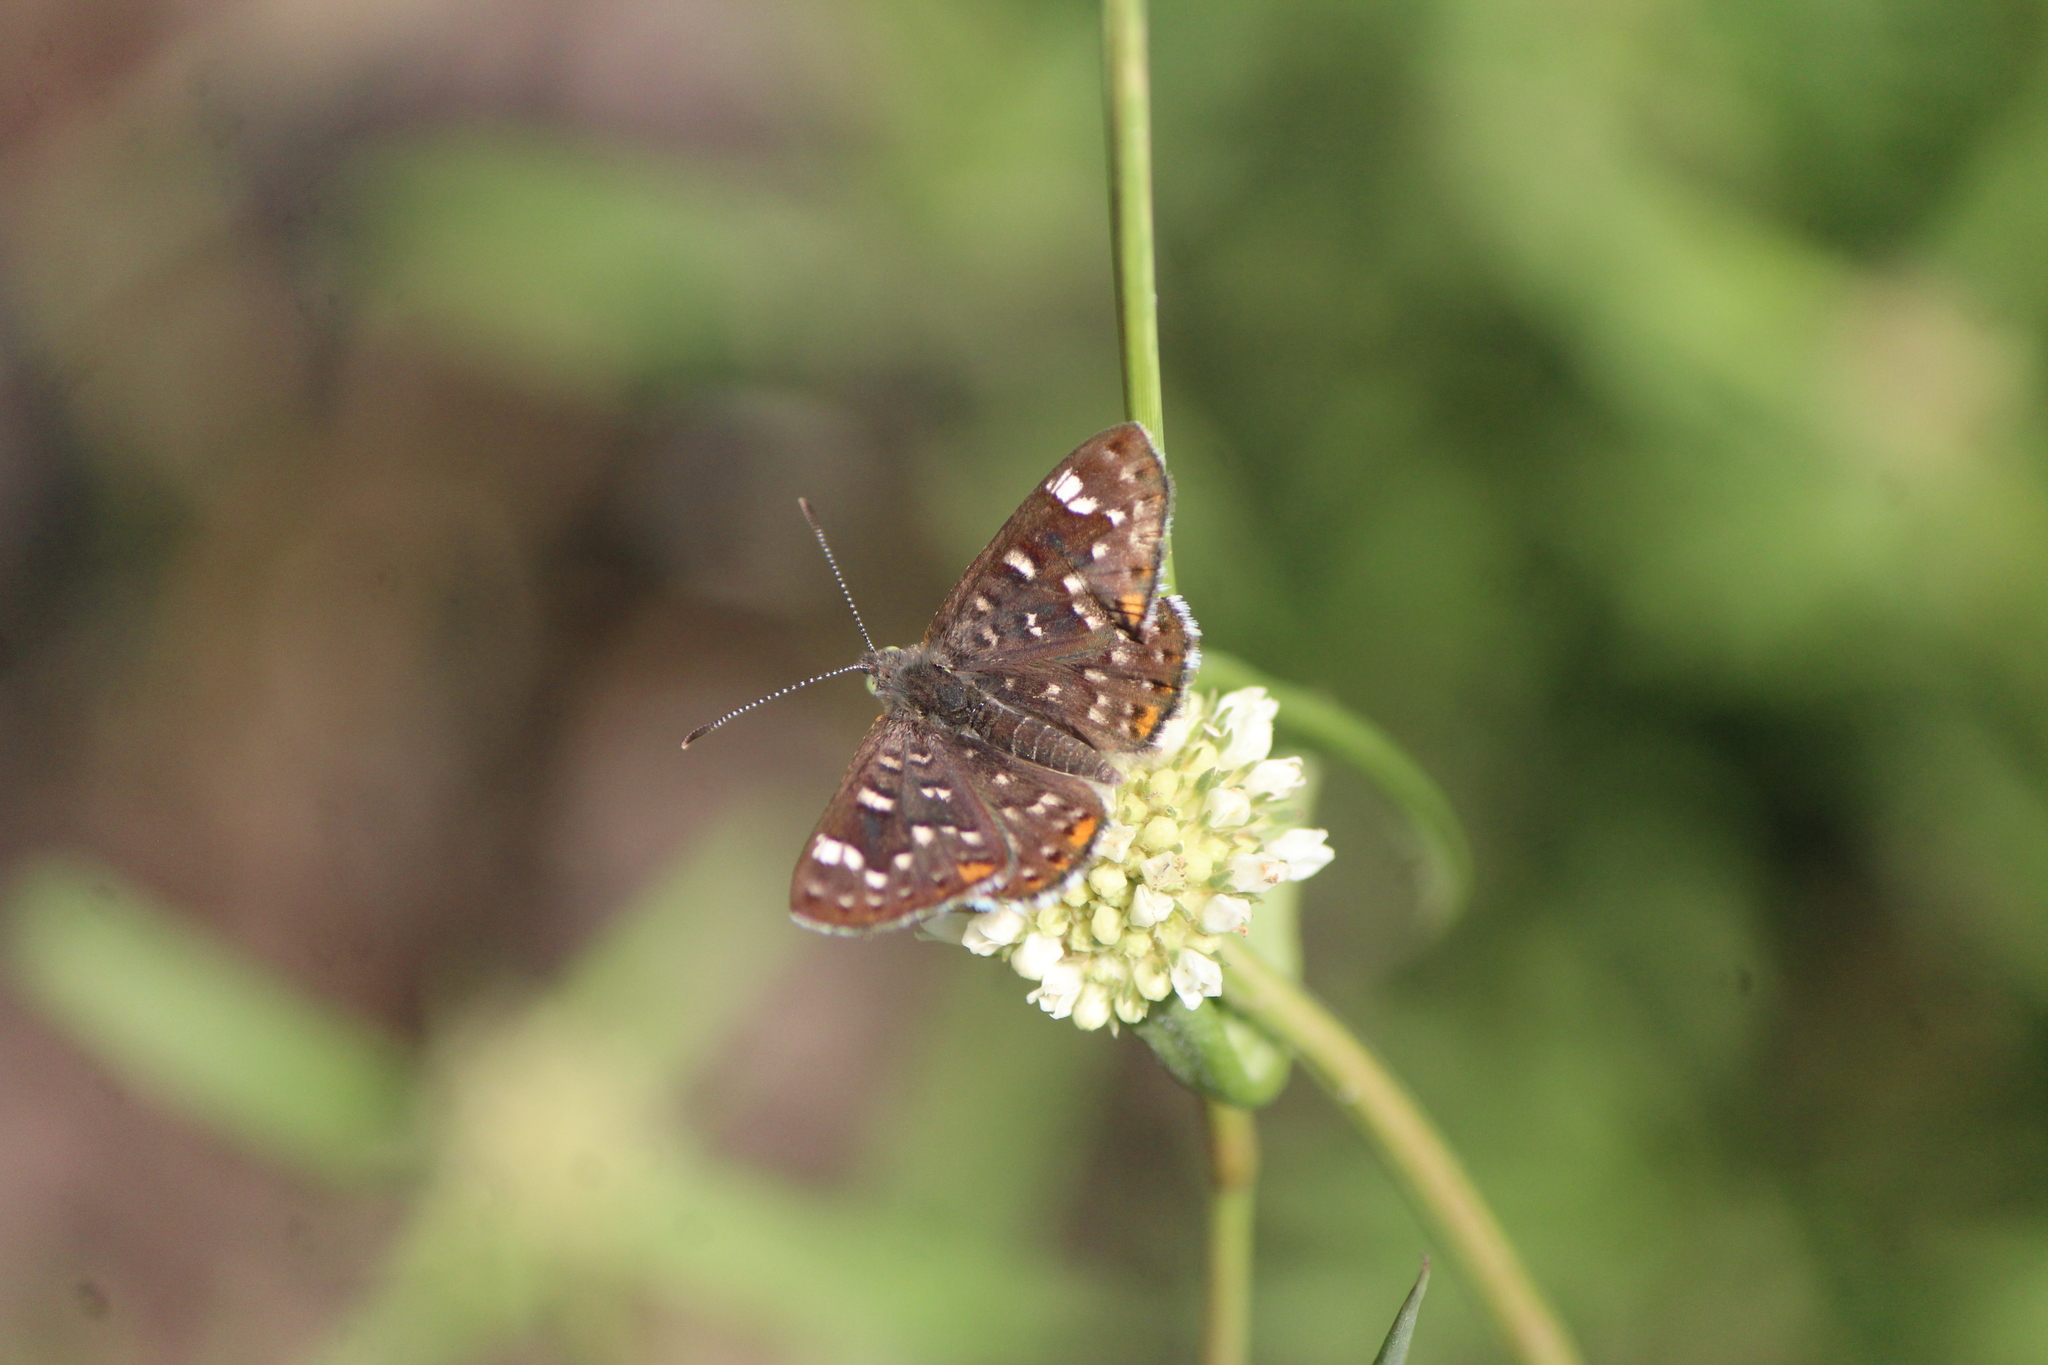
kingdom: Animalia
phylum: Arthropoda
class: Insecta
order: Lepidoptera
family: Riodinidae
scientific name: Riodinidae
